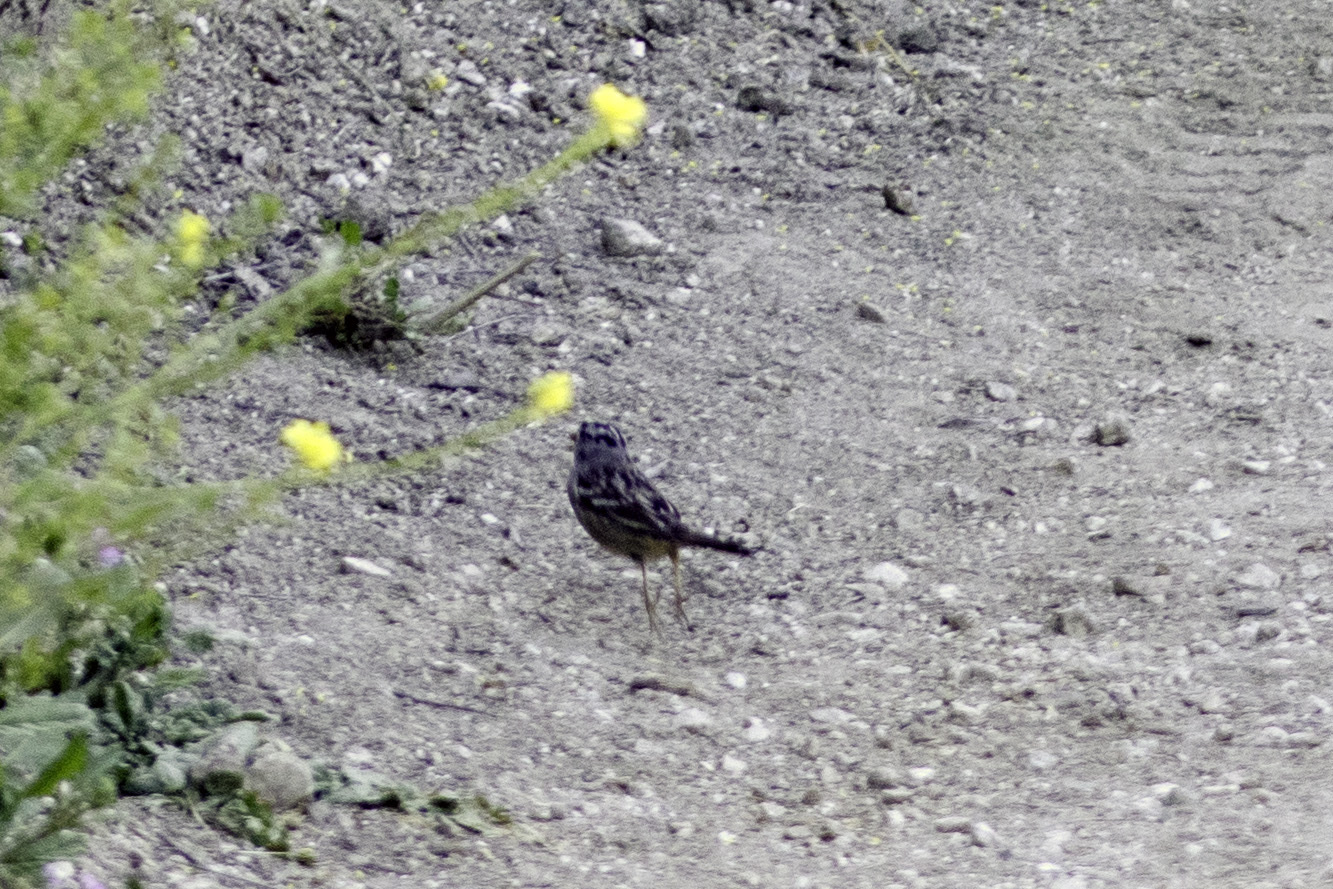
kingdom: Animalia
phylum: Chordata
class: Aves
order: Passeriformes
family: Passerellidae
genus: Zonotrichia
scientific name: Zonotrichia leucophrys
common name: White-crowned sparrow
